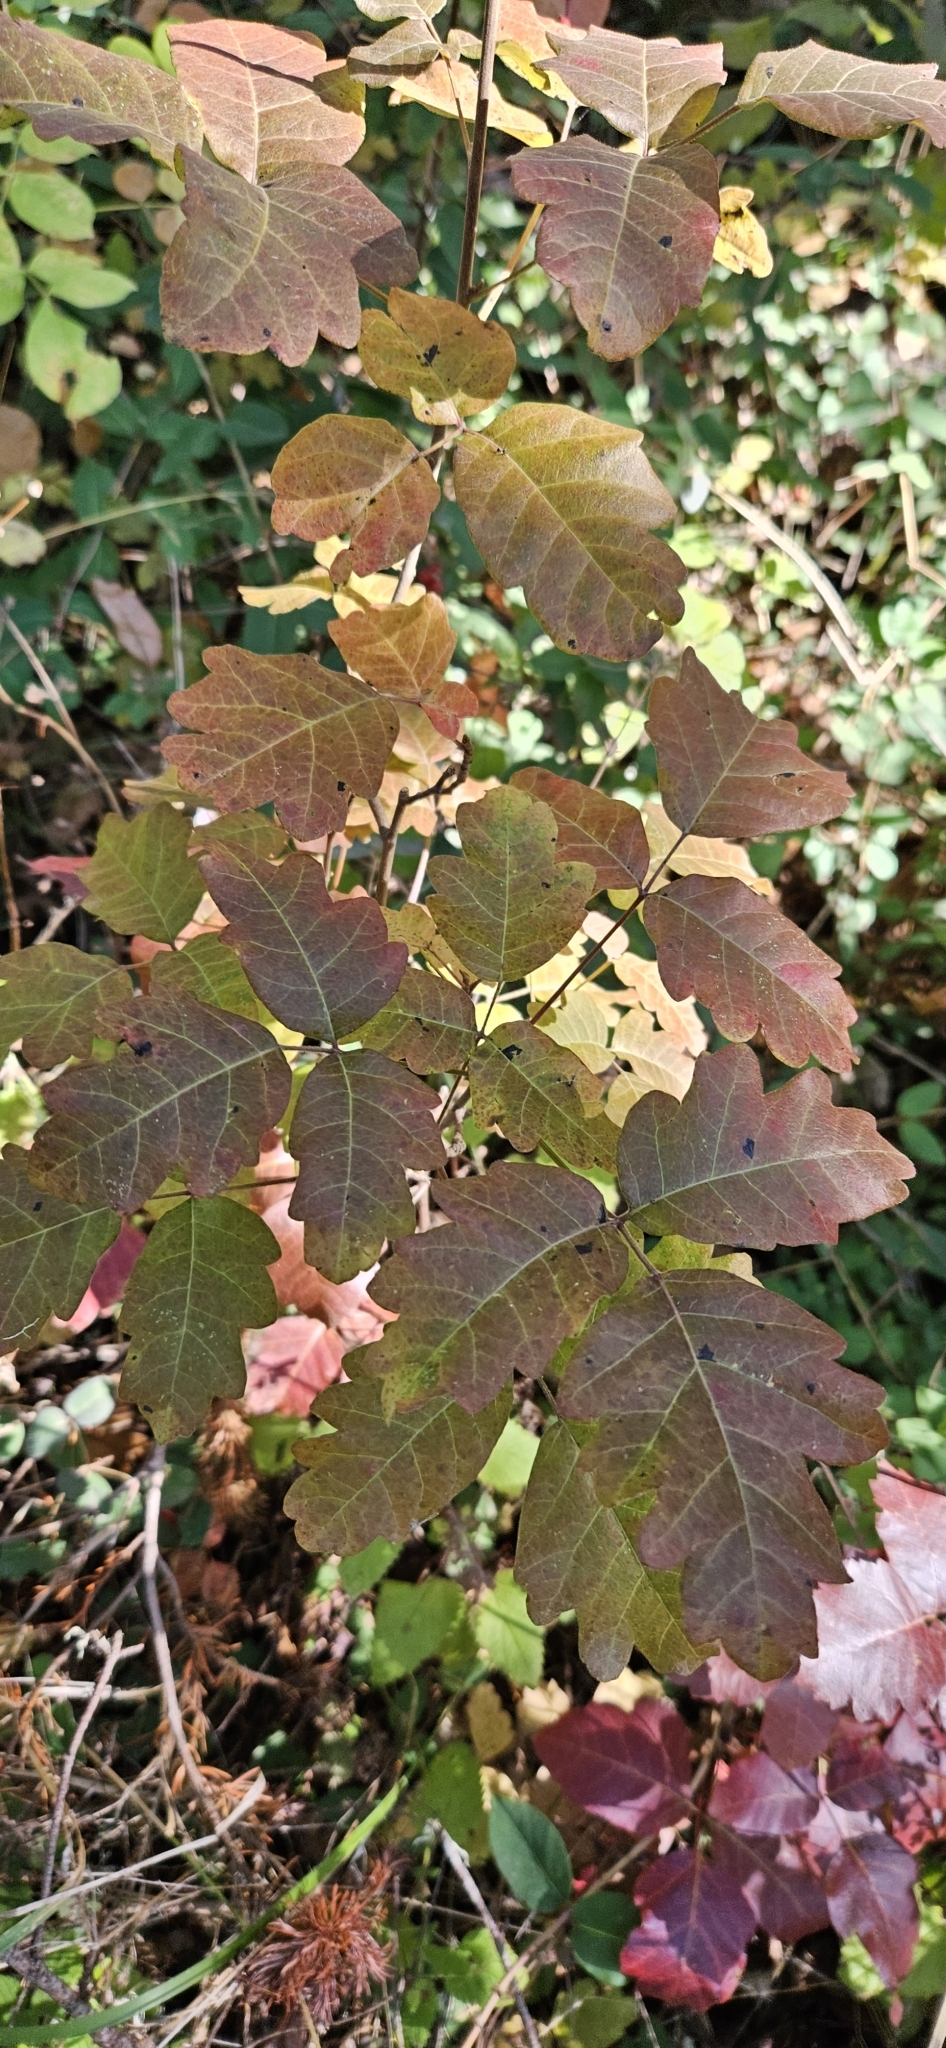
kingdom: Plantae
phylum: Tracheophyta
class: Magnoliopsida
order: Sapindales
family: Anacardiaceae
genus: Toxicodendron
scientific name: Toxicodendron diversilobum
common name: Pacific poison-oak
